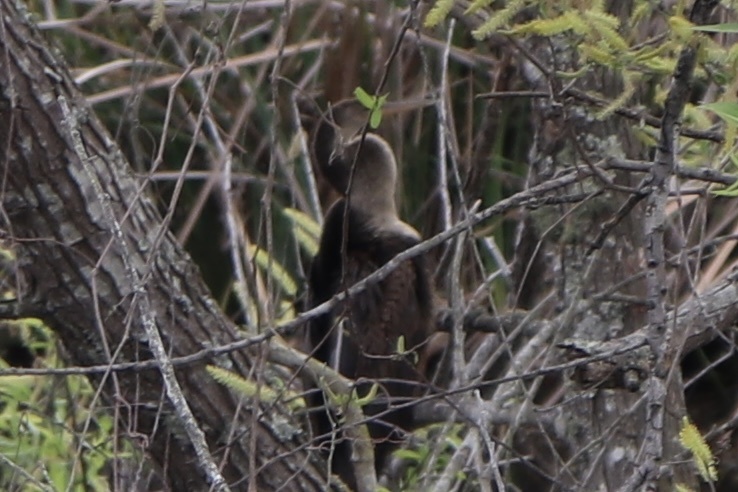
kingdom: Animalia
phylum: Chordata
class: Aves
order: Suliformes
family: Anhingidae
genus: Anhinga
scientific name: Anhinga anhinga
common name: Anhinga
